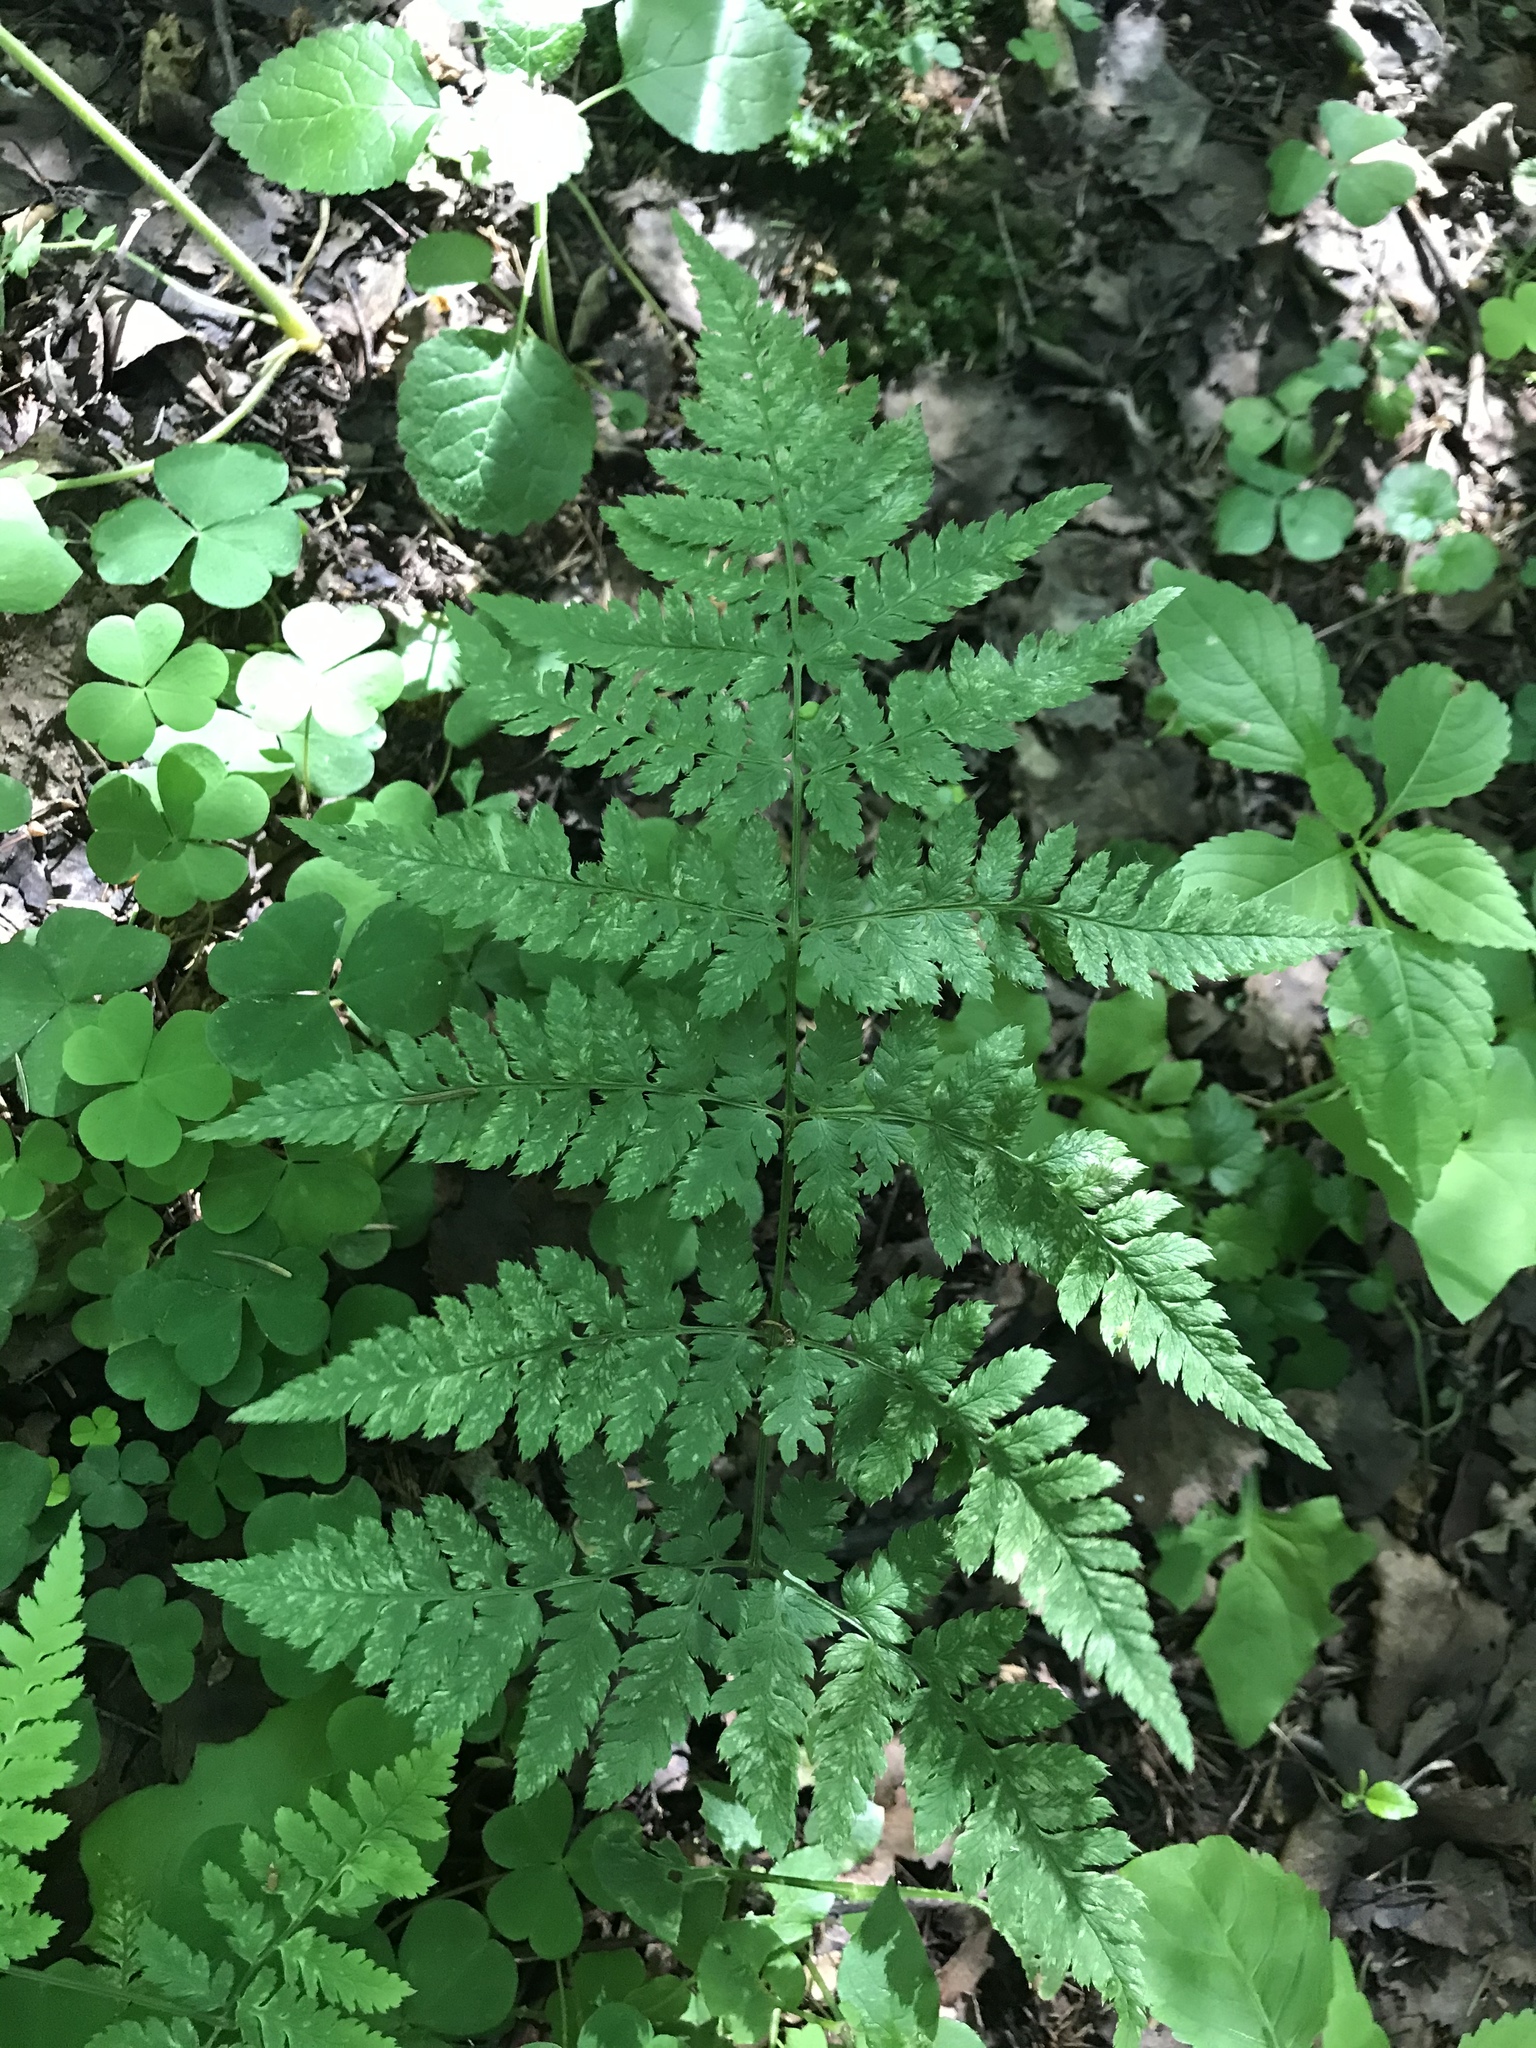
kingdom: Plantae
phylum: Tracheophyta
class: Polypodiopsida
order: Polypodiales
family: Dryopteridaceae
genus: Dryopteris
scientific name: Dryopteris carthusiana
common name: Narrow buckler-fern
